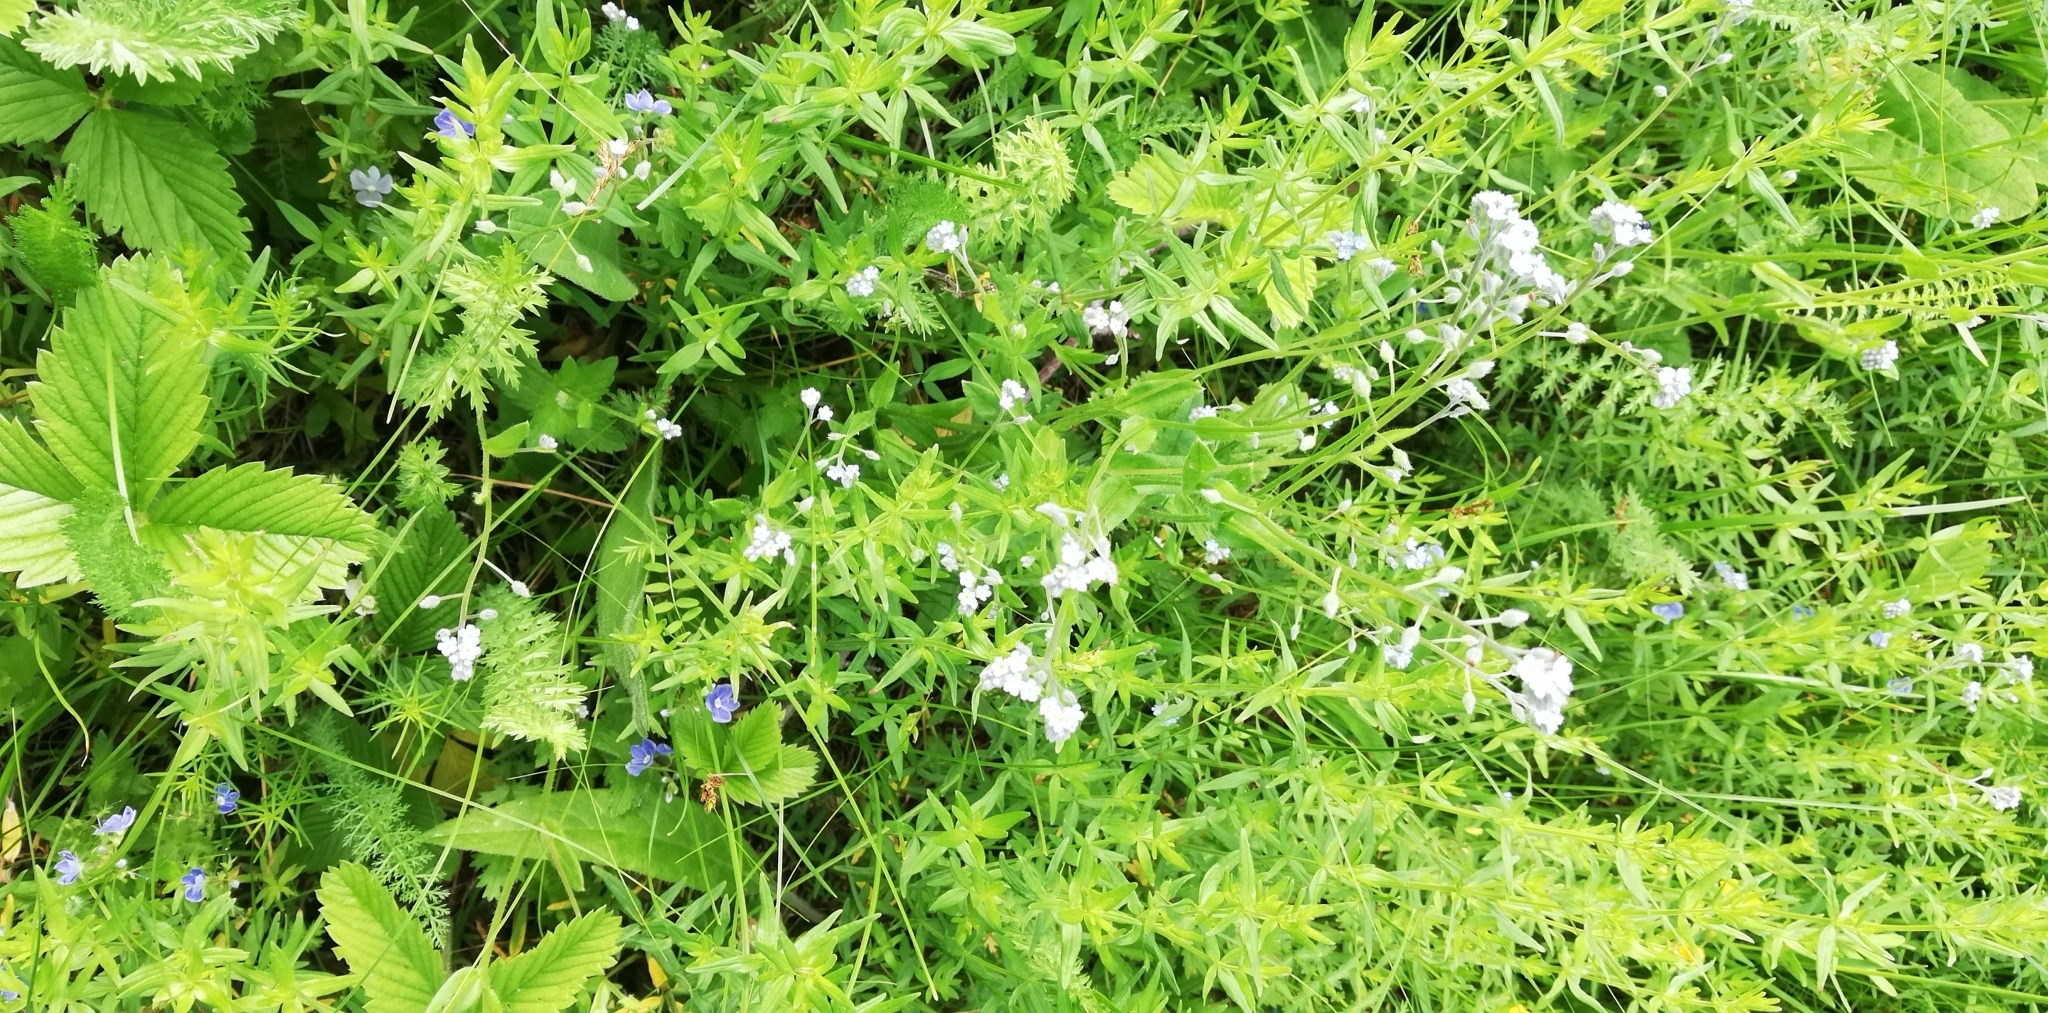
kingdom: Plantae
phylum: Tracheophyta
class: Magnoliopsida
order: Boraginales
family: Boraginaceae
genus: Myosotis
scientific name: Myosotis arvensis
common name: Field forget-me-not
